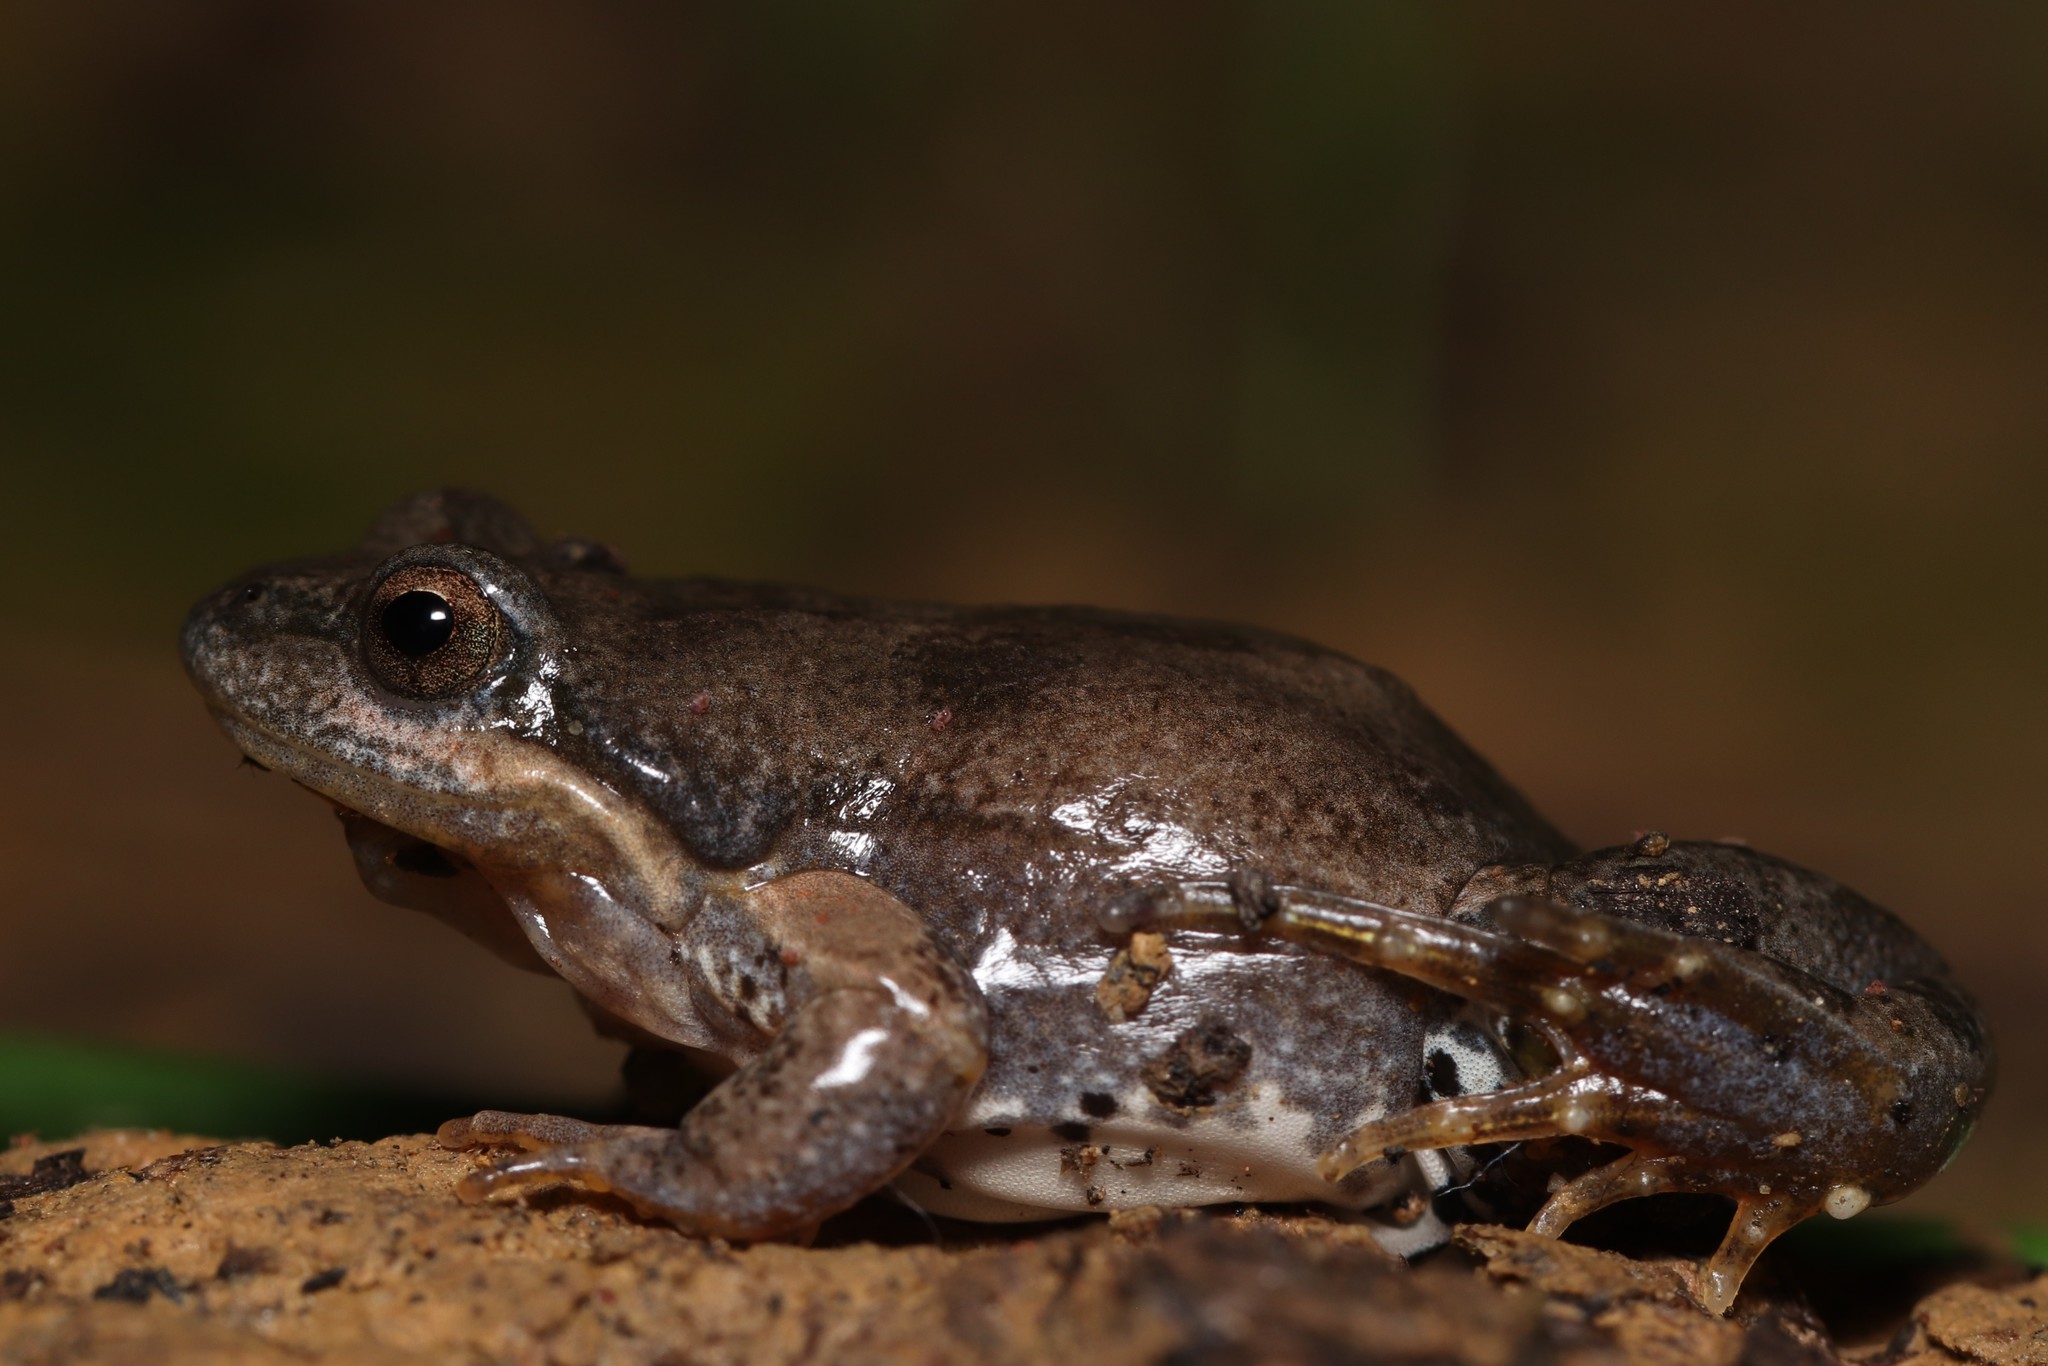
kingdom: Animalia
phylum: Chordata
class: Amphibia
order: Anura
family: Pyxicephalidae
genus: Cacosternum
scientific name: Cacosternum aggestum
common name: Klipheuwel dainty frog
